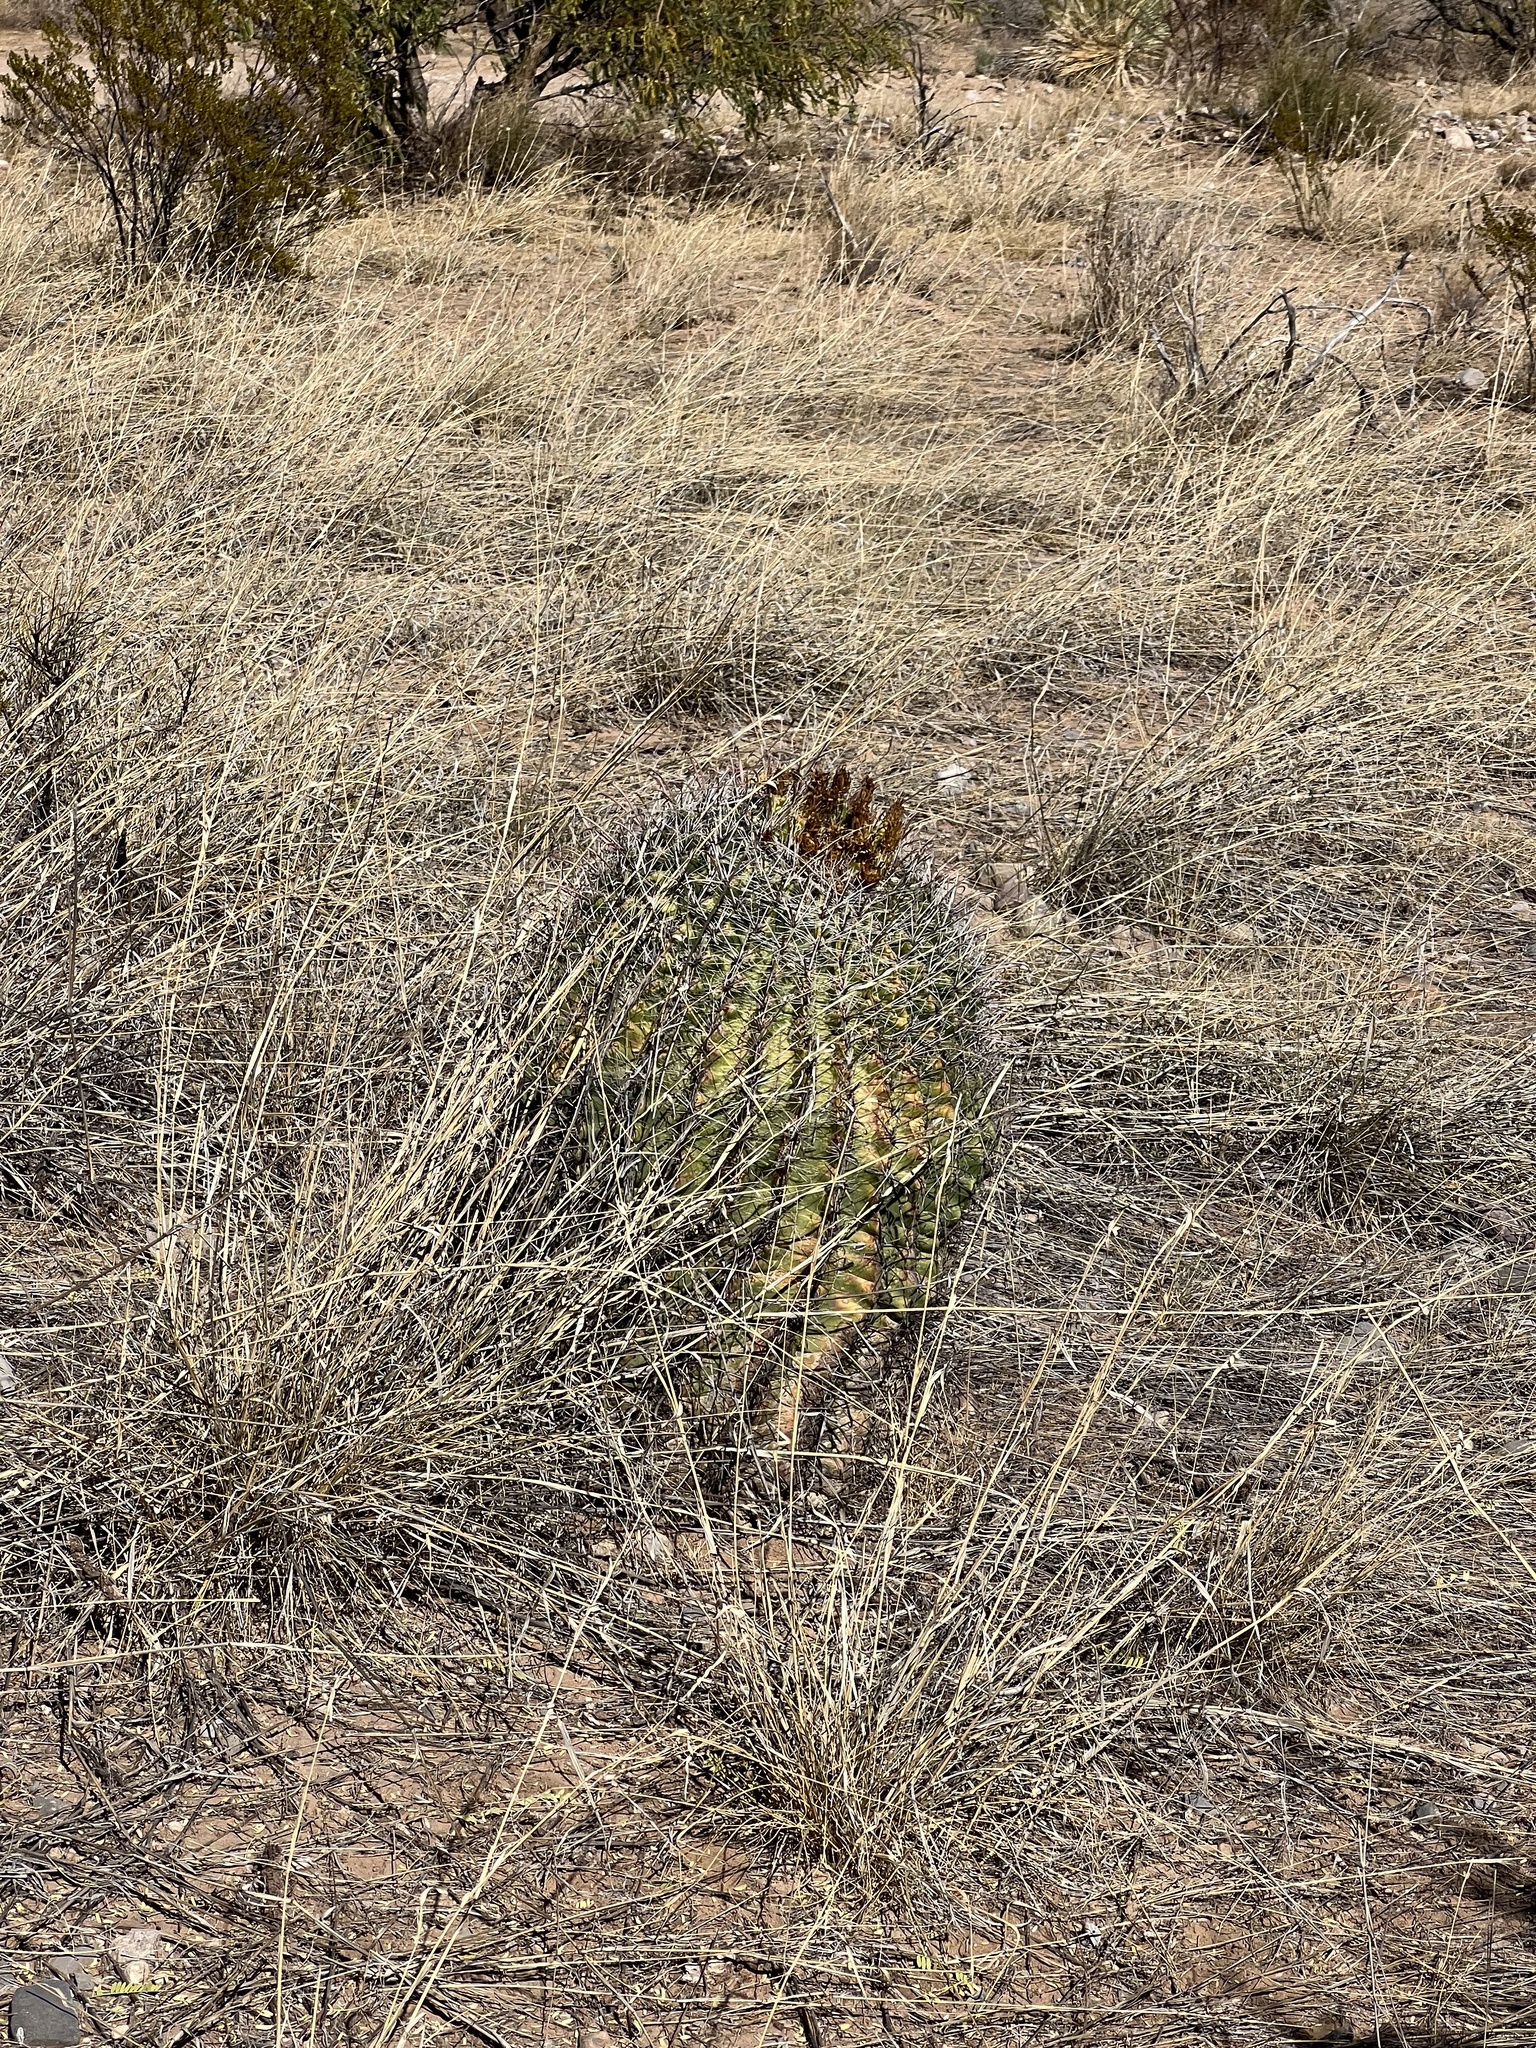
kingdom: Plantae
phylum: Tracheophyta
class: Magnoliopsida
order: Caryophyllales
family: Cactaceae
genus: Ferocactus
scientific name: Ferocactus wislizeni
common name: Candy barrel cactus
